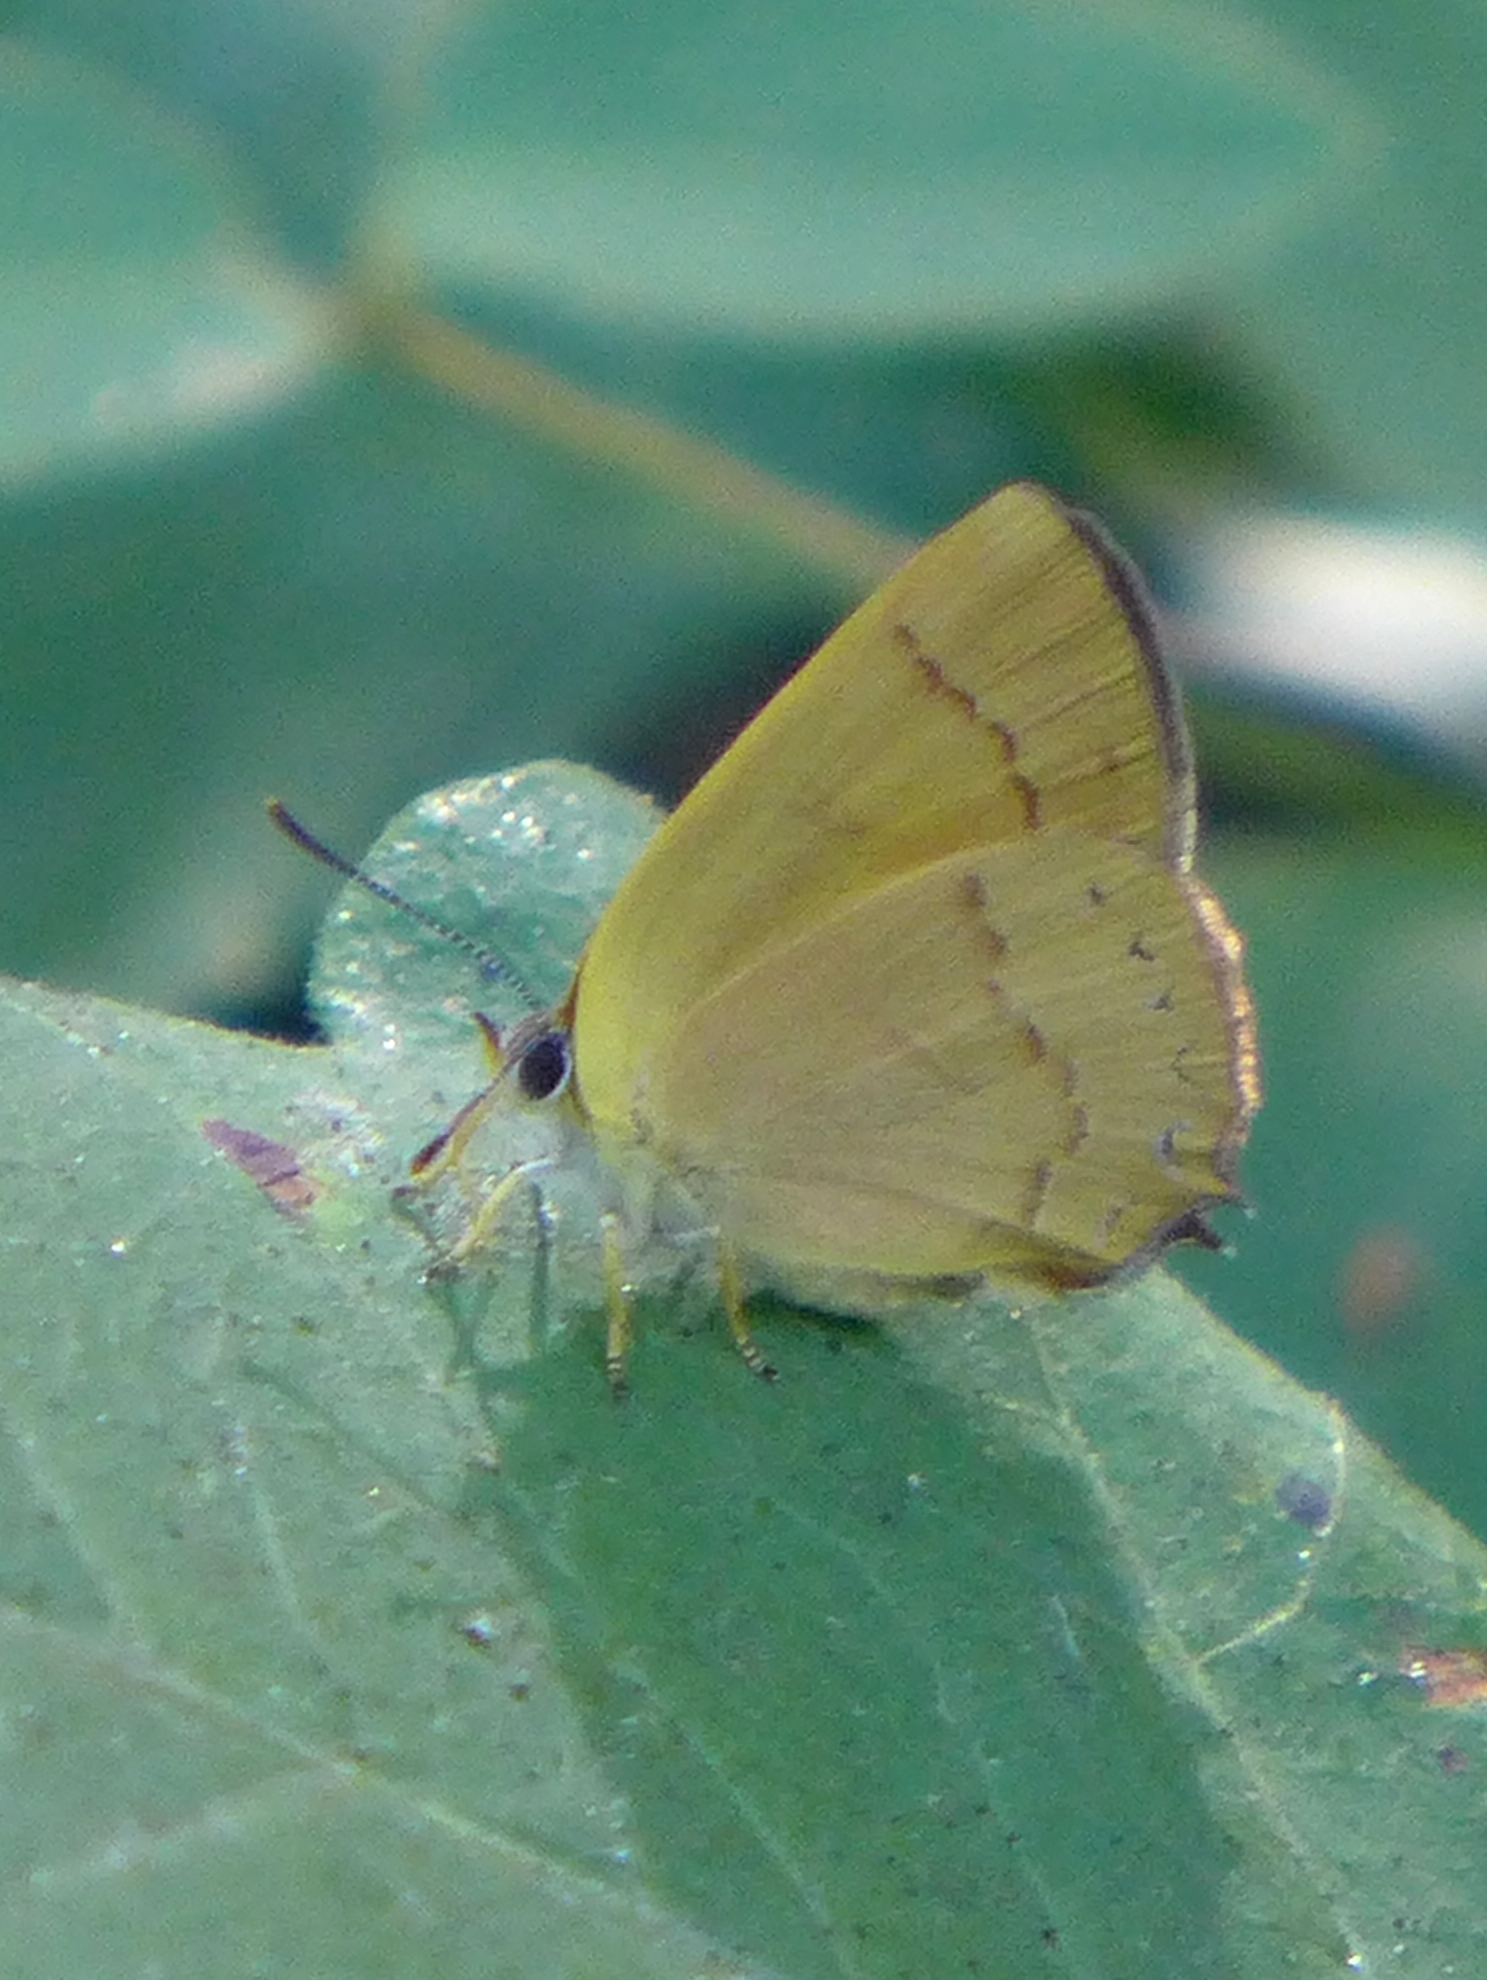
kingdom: Animalia
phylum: Arthropoda
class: Insecta
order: Lepidoptera
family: Lycaenidae
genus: Habrodais
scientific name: Habrodais grunus
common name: Golden hairstreak
